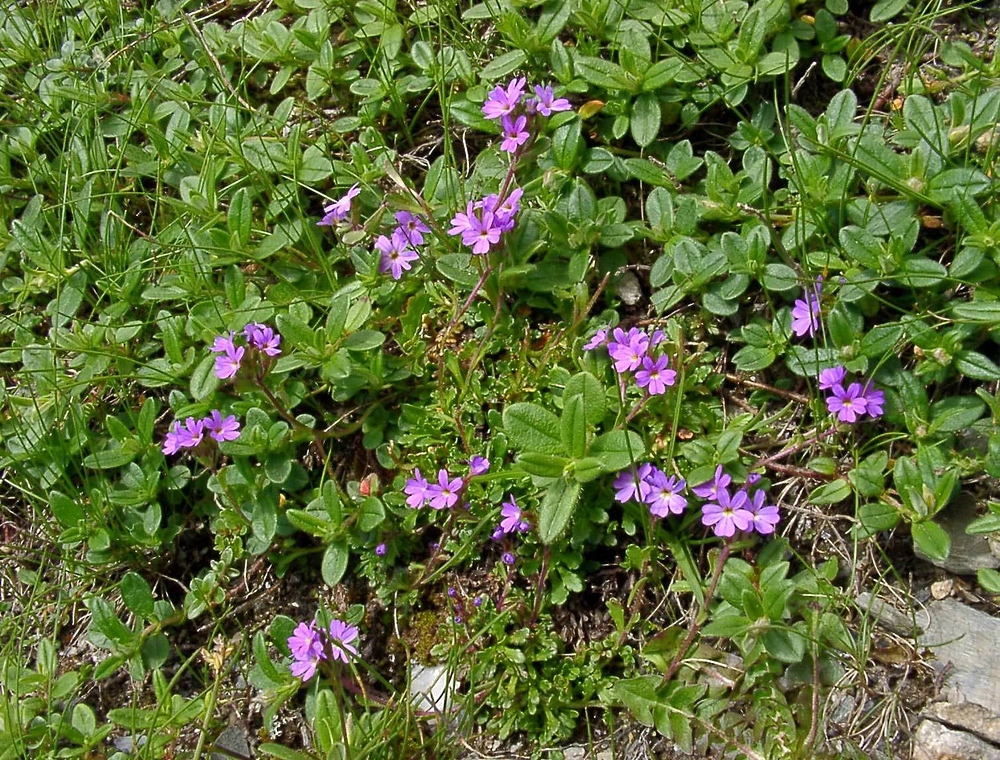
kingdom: Plantae
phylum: Tracheophyta
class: Magnoliopsida
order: Lamiales
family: Plantaginaceae
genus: Erinus
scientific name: Erinus alpinus
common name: Fairy foxglove
